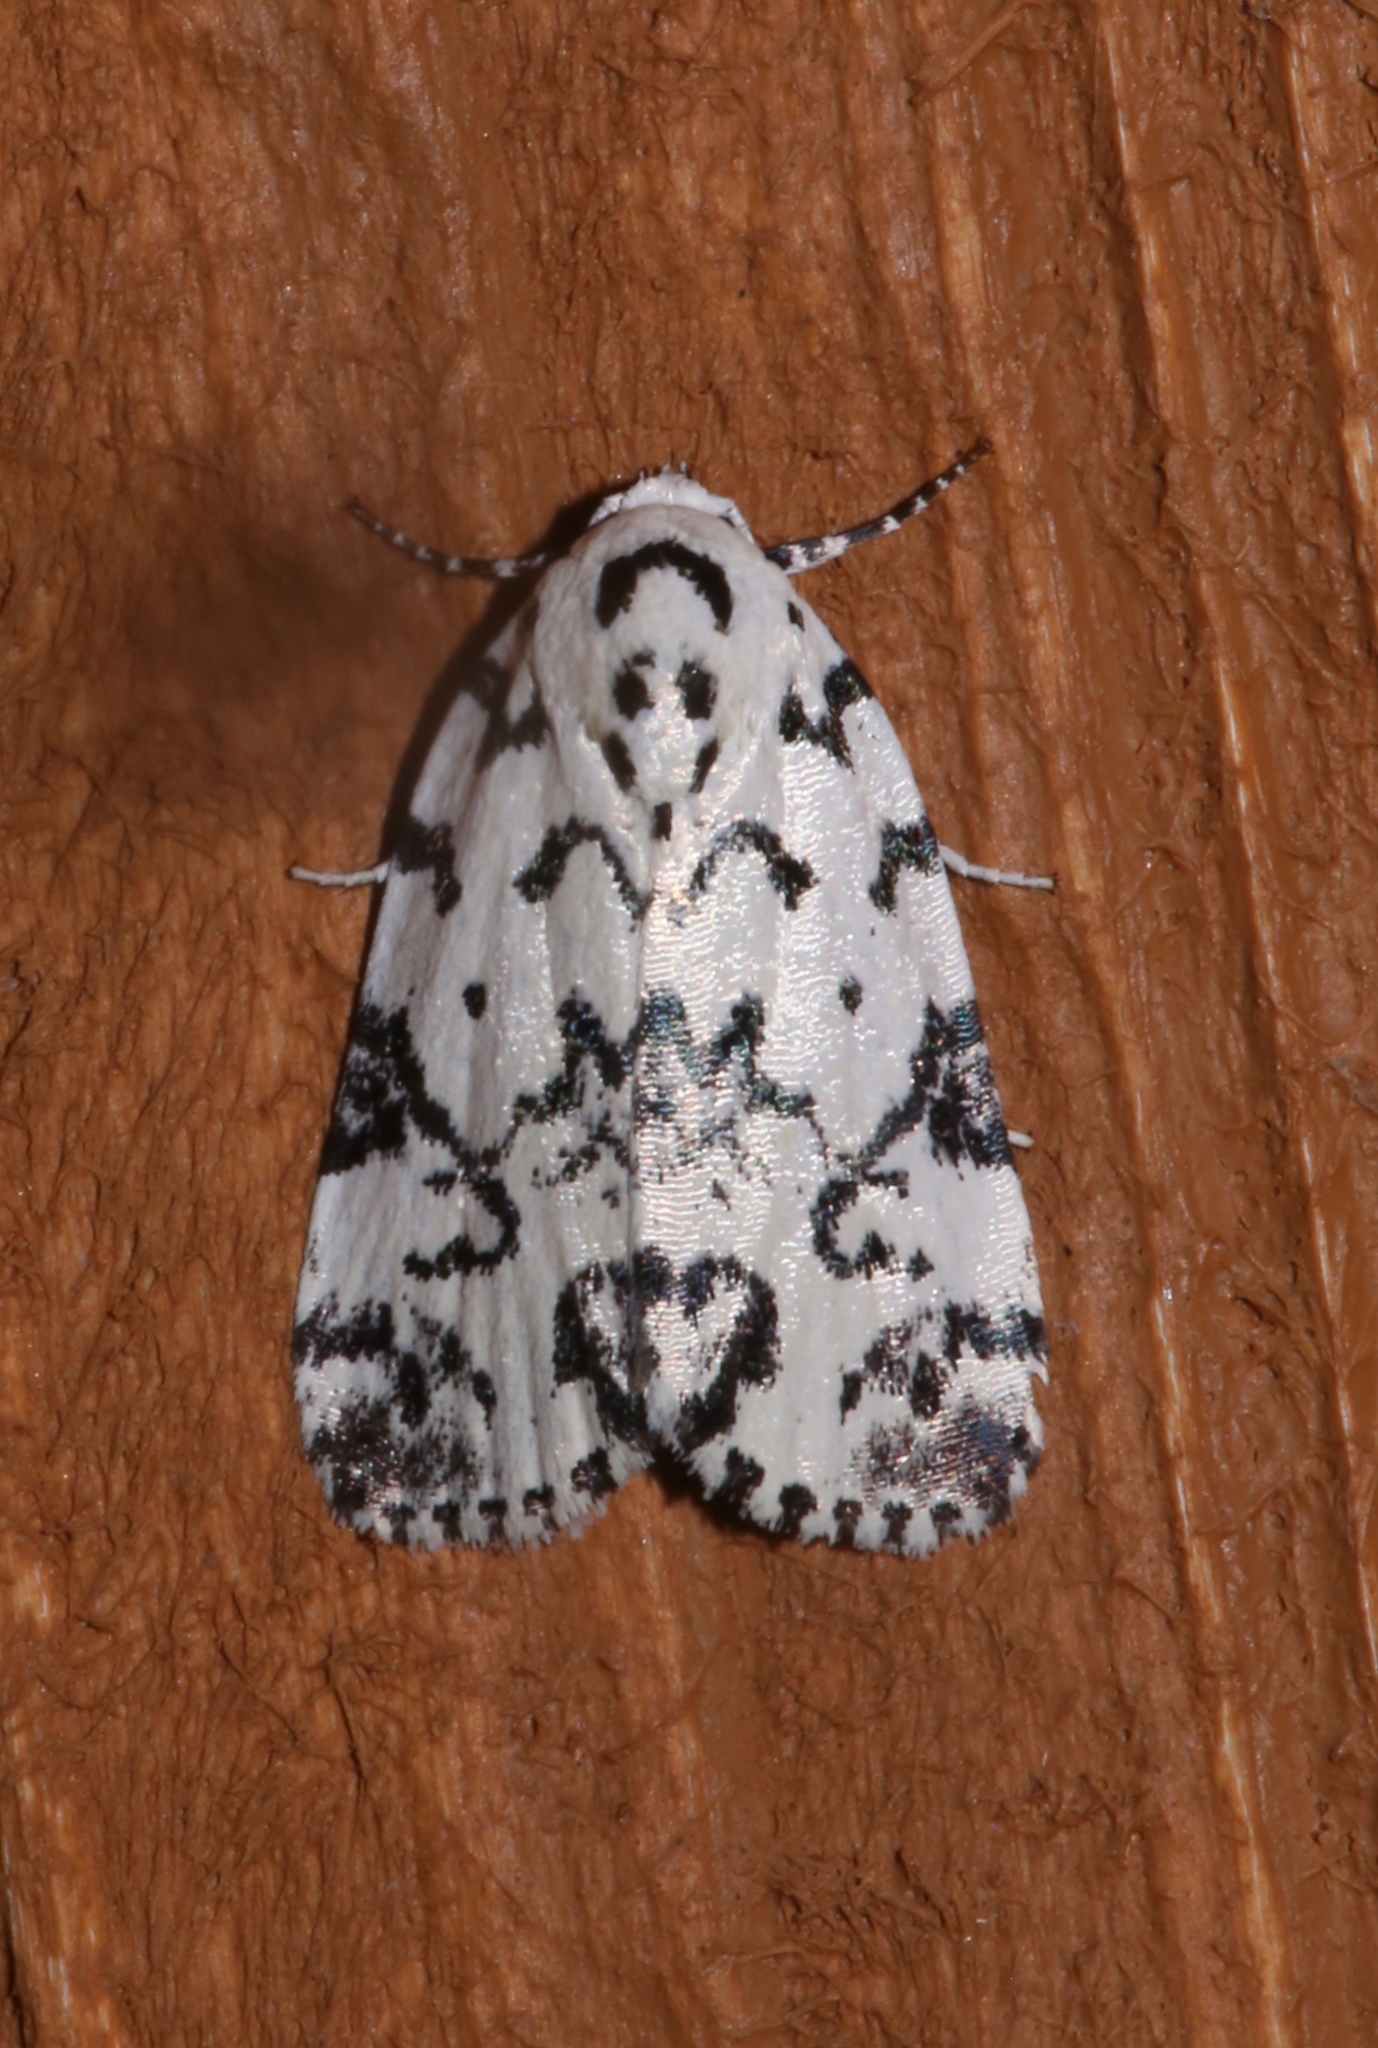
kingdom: Animalia
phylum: Arthropoda
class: Insecta
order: Lepidoptera
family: Noctuidae
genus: Polygrammate
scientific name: Polygrammate hebraeicum
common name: Hebrew moth
